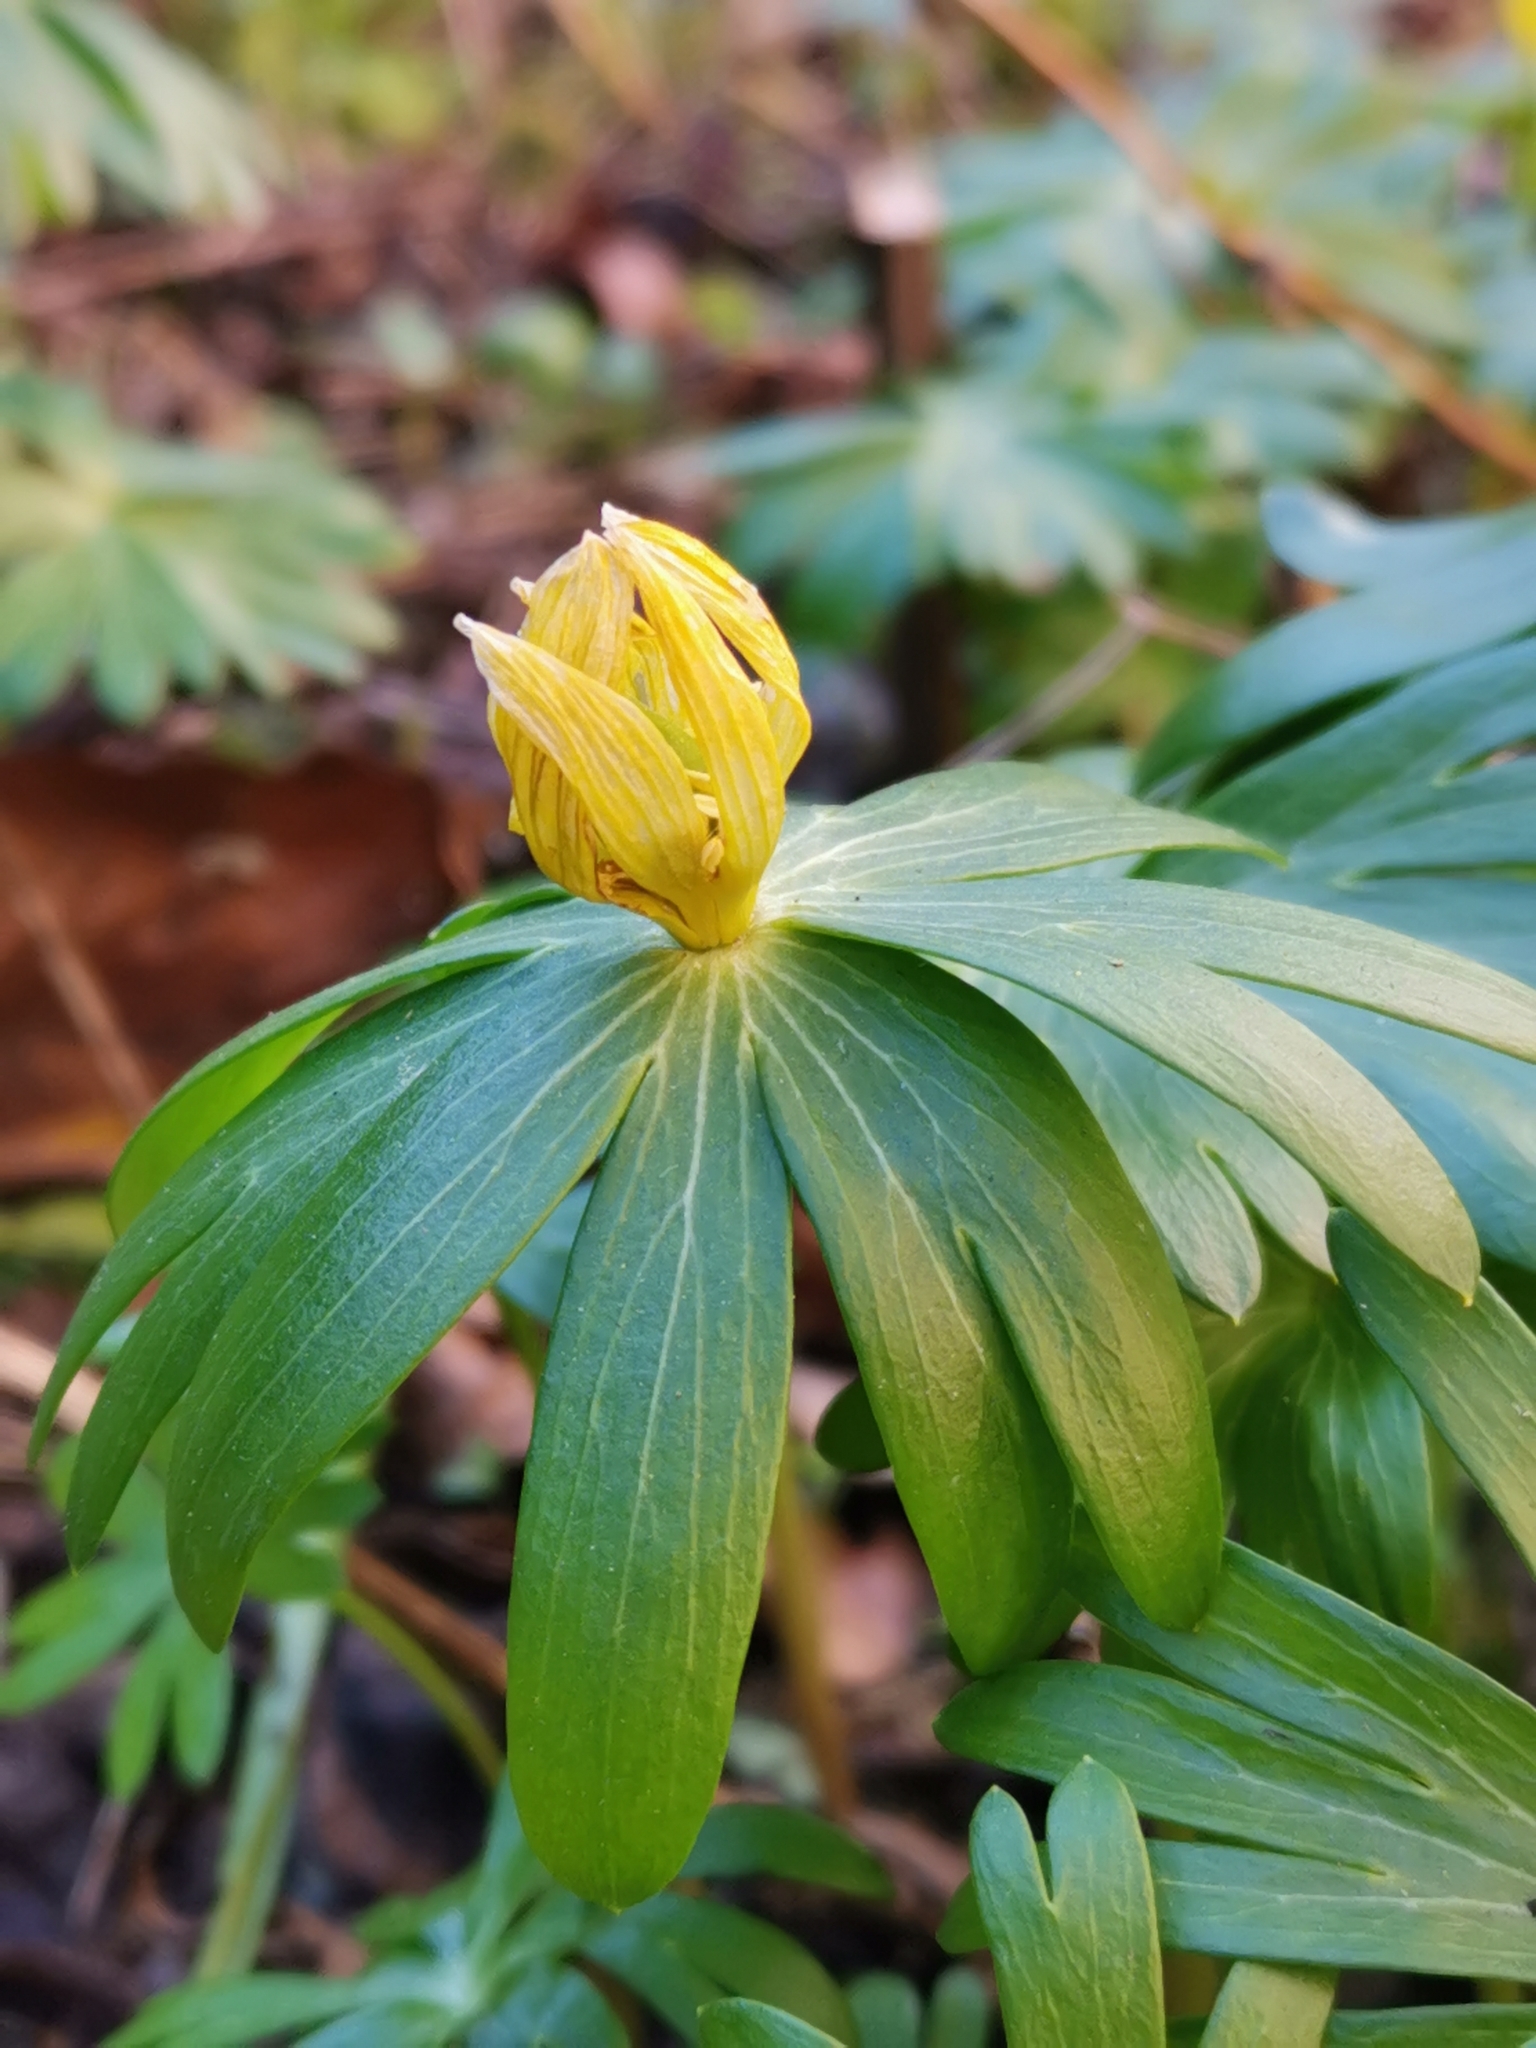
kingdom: Plantae
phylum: Tracheophyta
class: Magnoliopsida
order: Ranunculales
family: Ranunculaceae
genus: Eranthis
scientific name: Eranthis hyemalis
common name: Winter aconite
